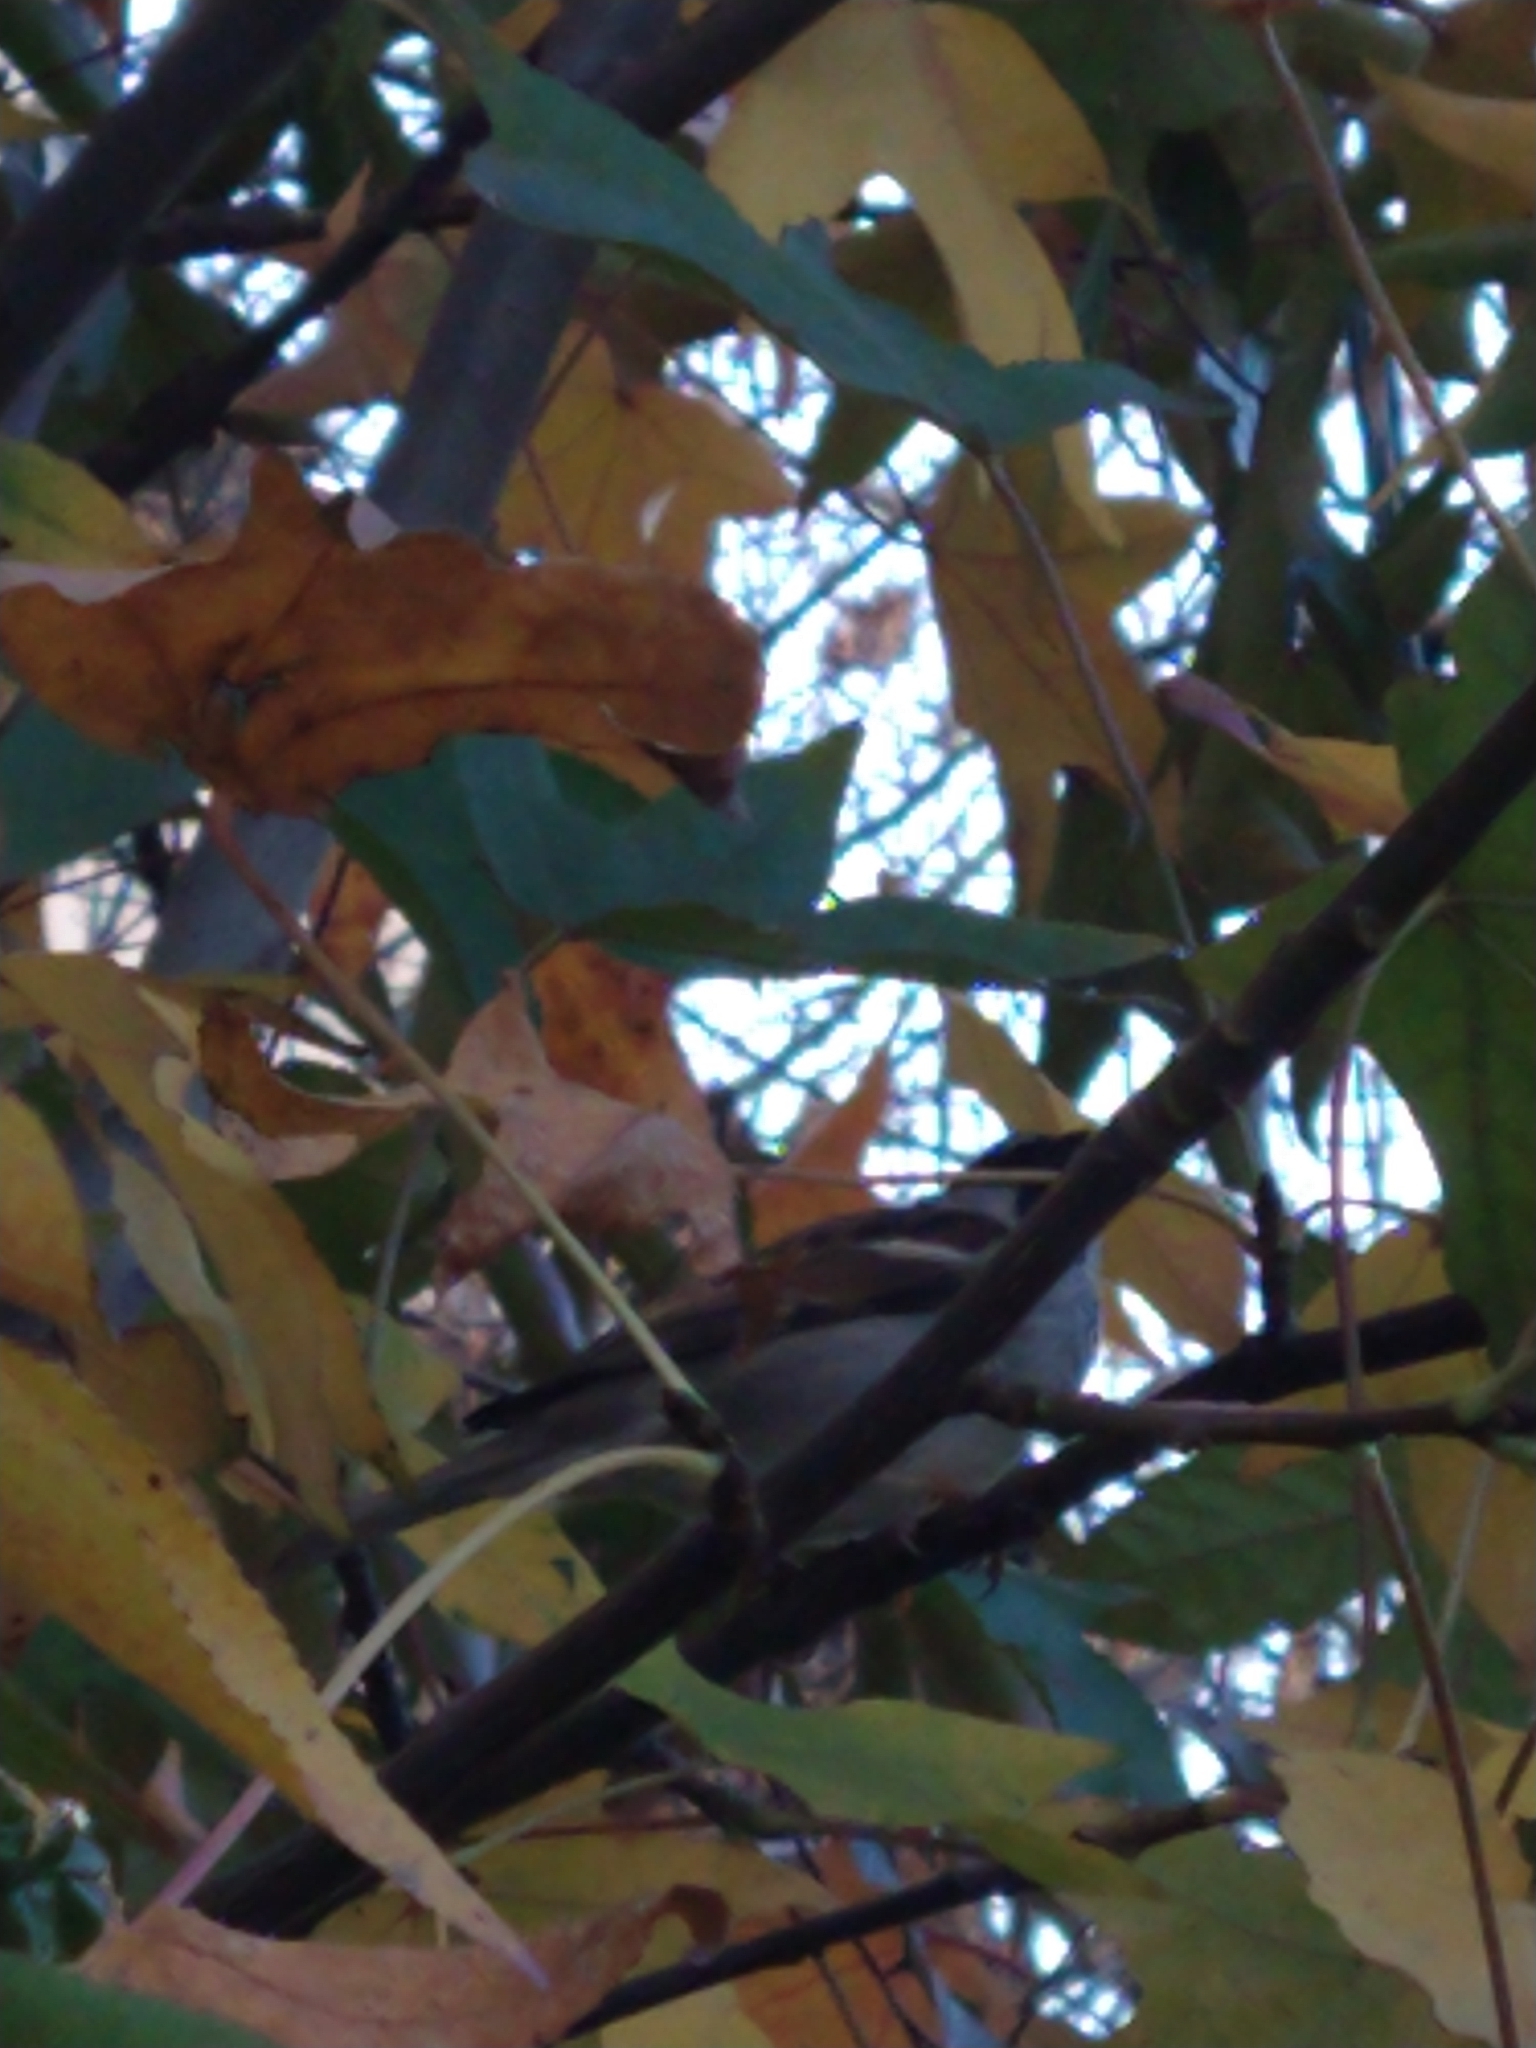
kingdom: Animalia
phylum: Chordata
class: Aves
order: Passeriformes
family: Passeridae
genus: Passer
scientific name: Passer domesticus
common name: House sparrow
